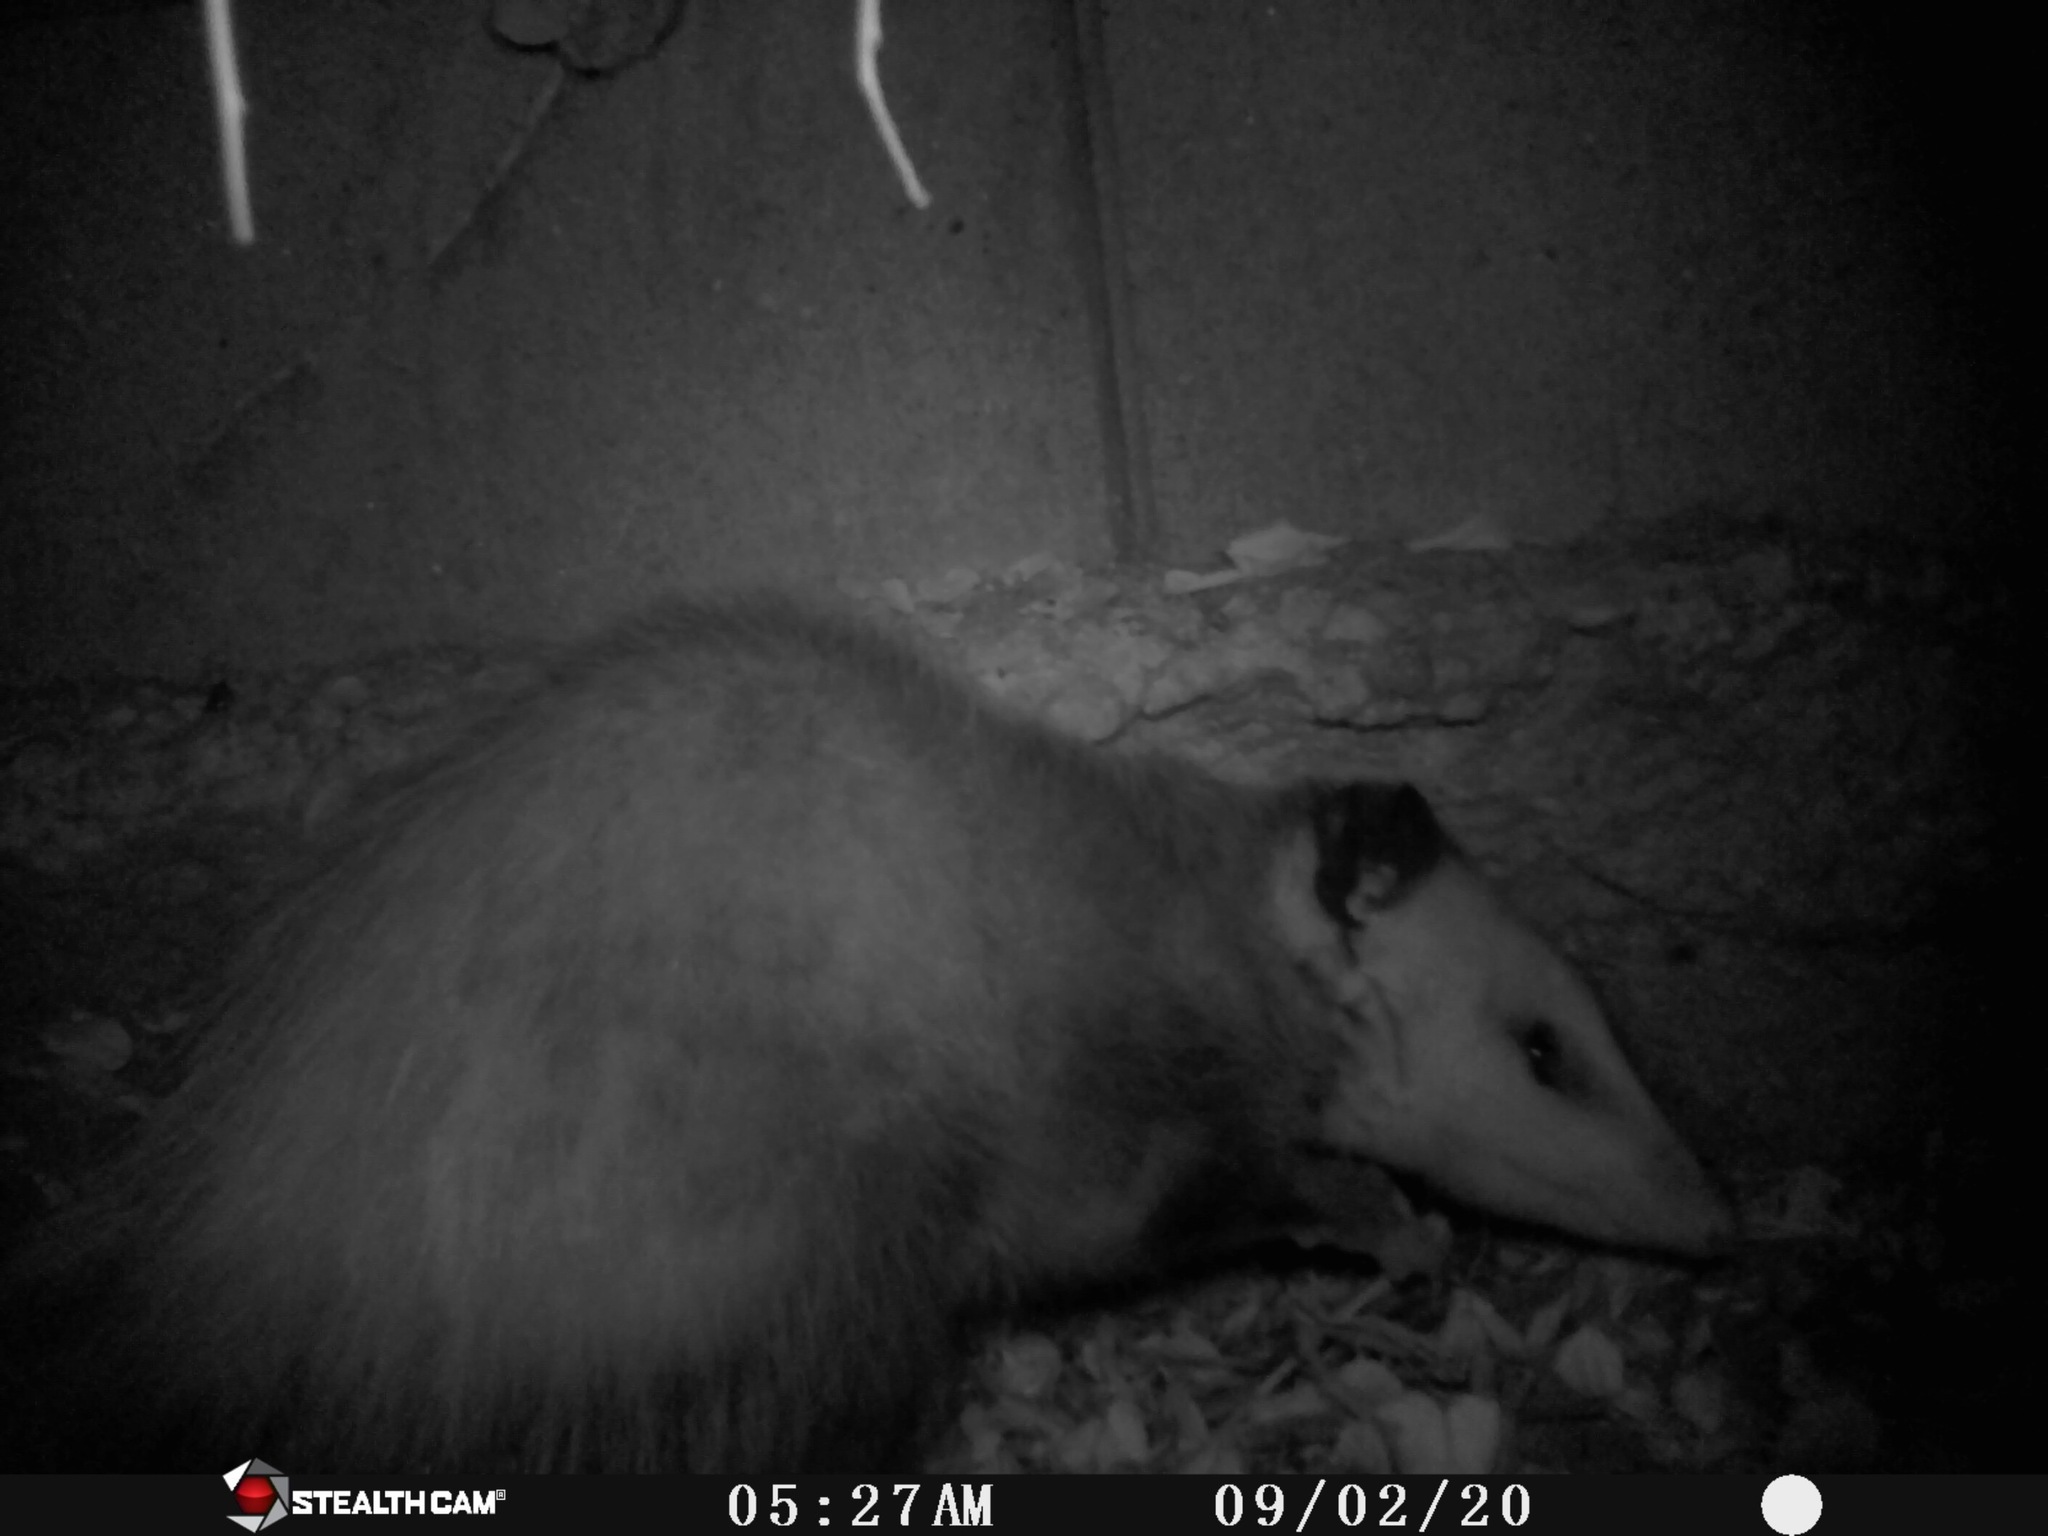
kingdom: Animalia
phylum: Chordata
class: Mammalia
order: Didelphimorphia
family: Didelphidae
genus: Didelphis
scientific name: Didelphis virginiana
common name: Virginia opossum
